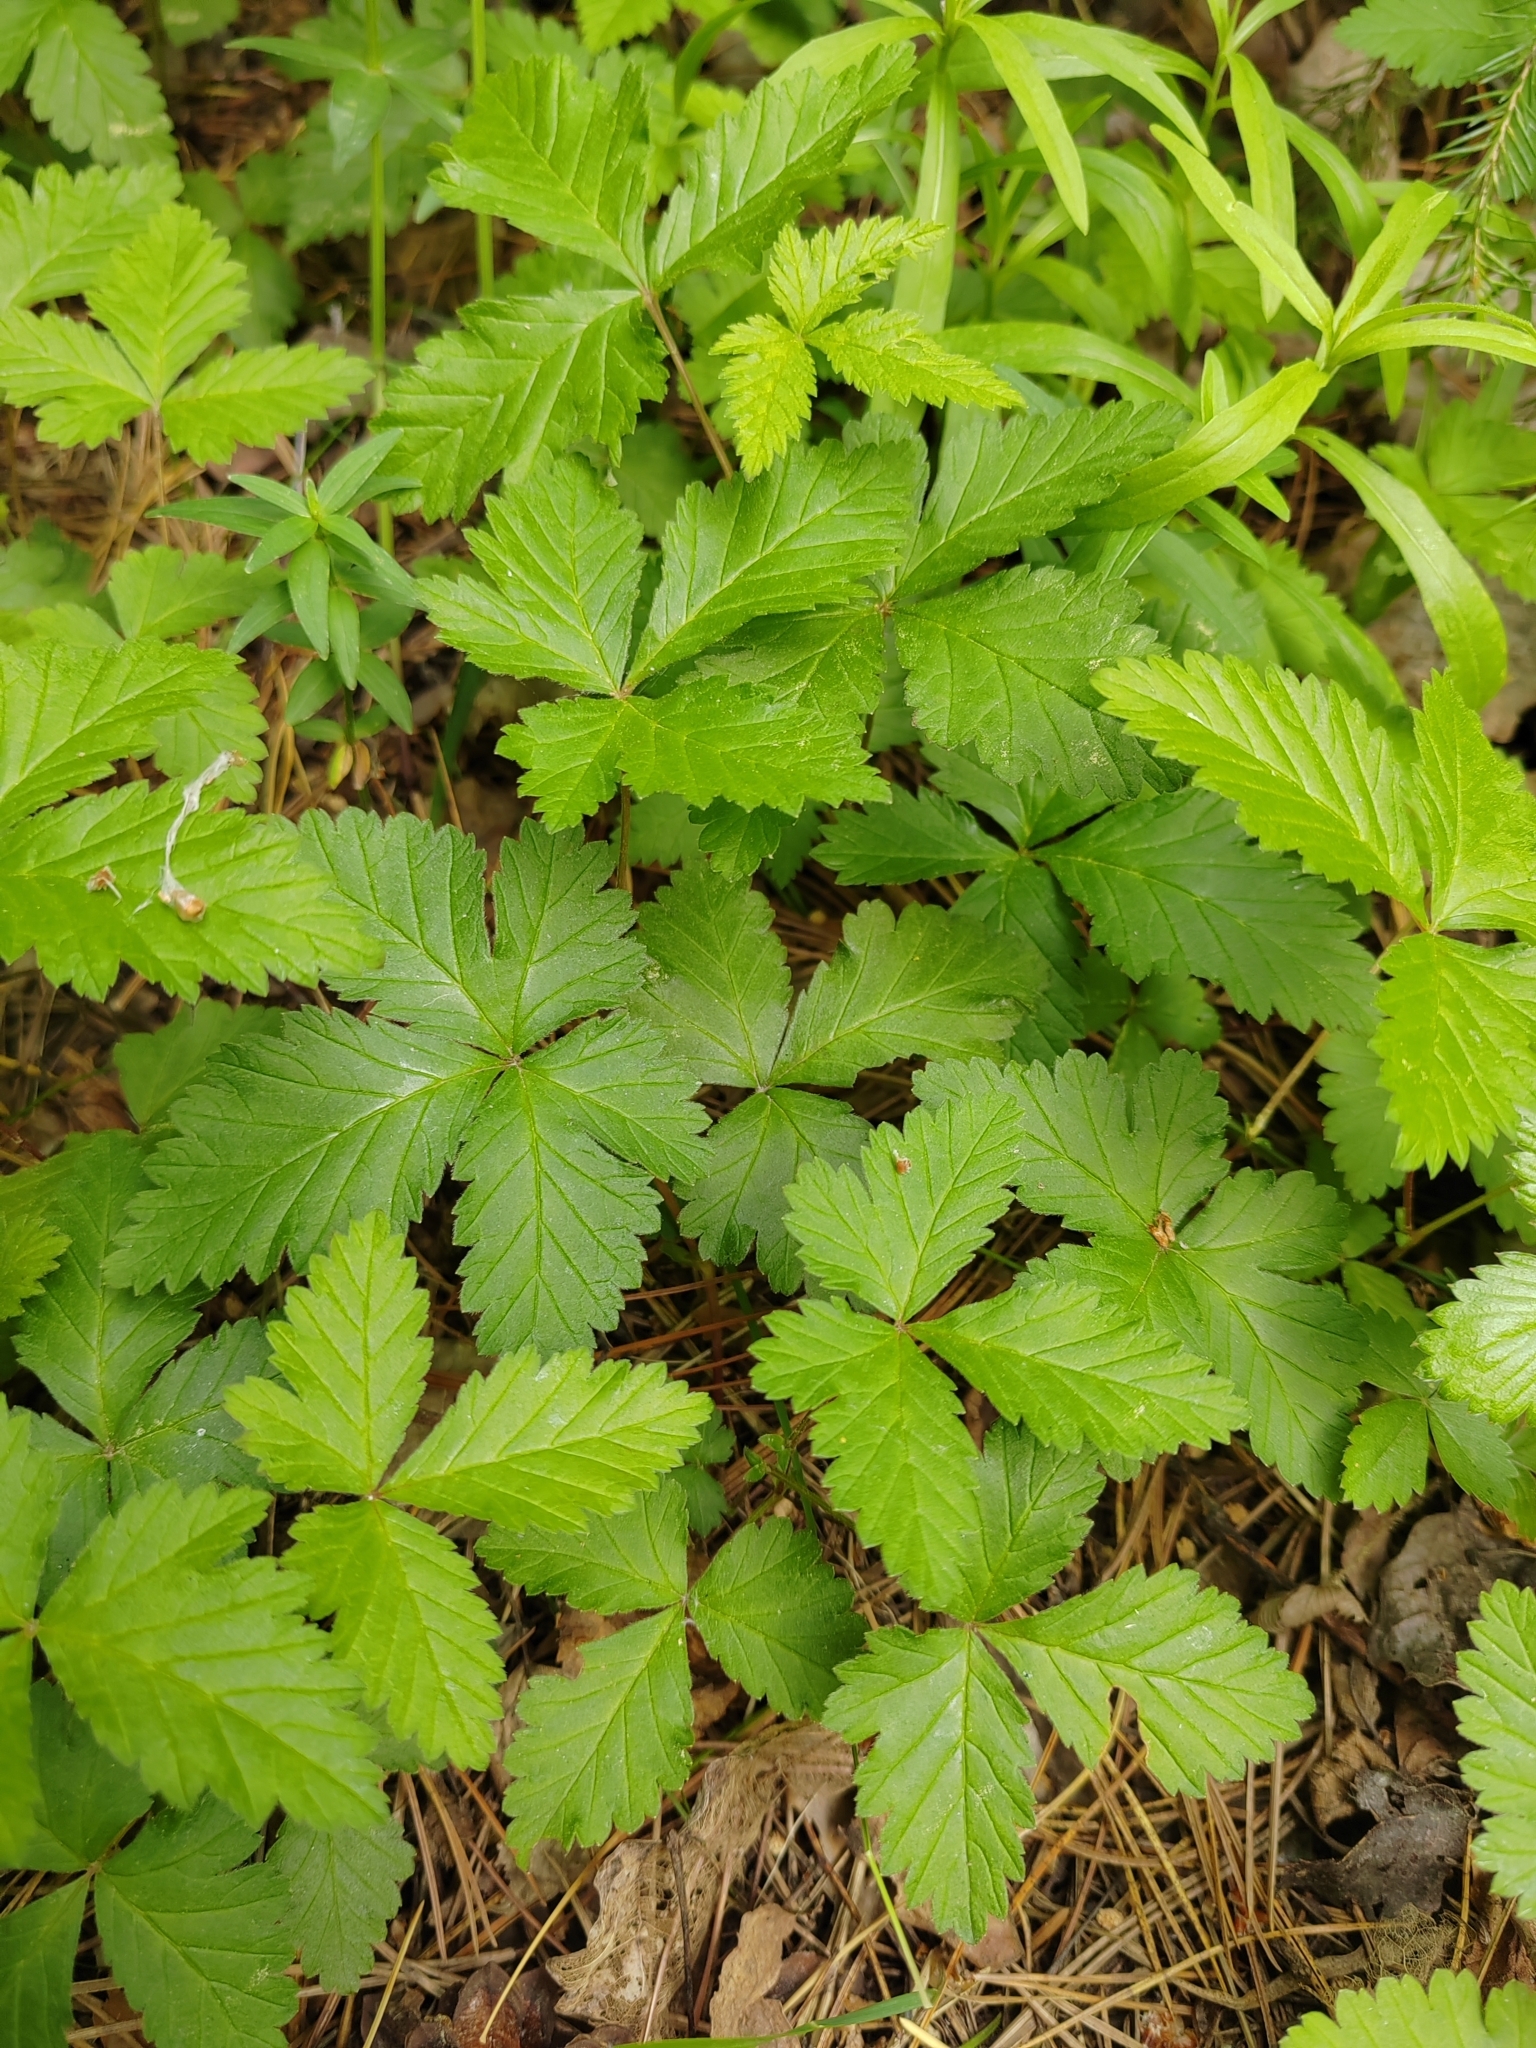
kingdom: Plantae
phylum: Tracheophyta
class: Magnoliopsida
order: Rosales
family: Rosaceae
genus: Rubus
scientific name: Rubus arcticus
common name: Arctic bramble
